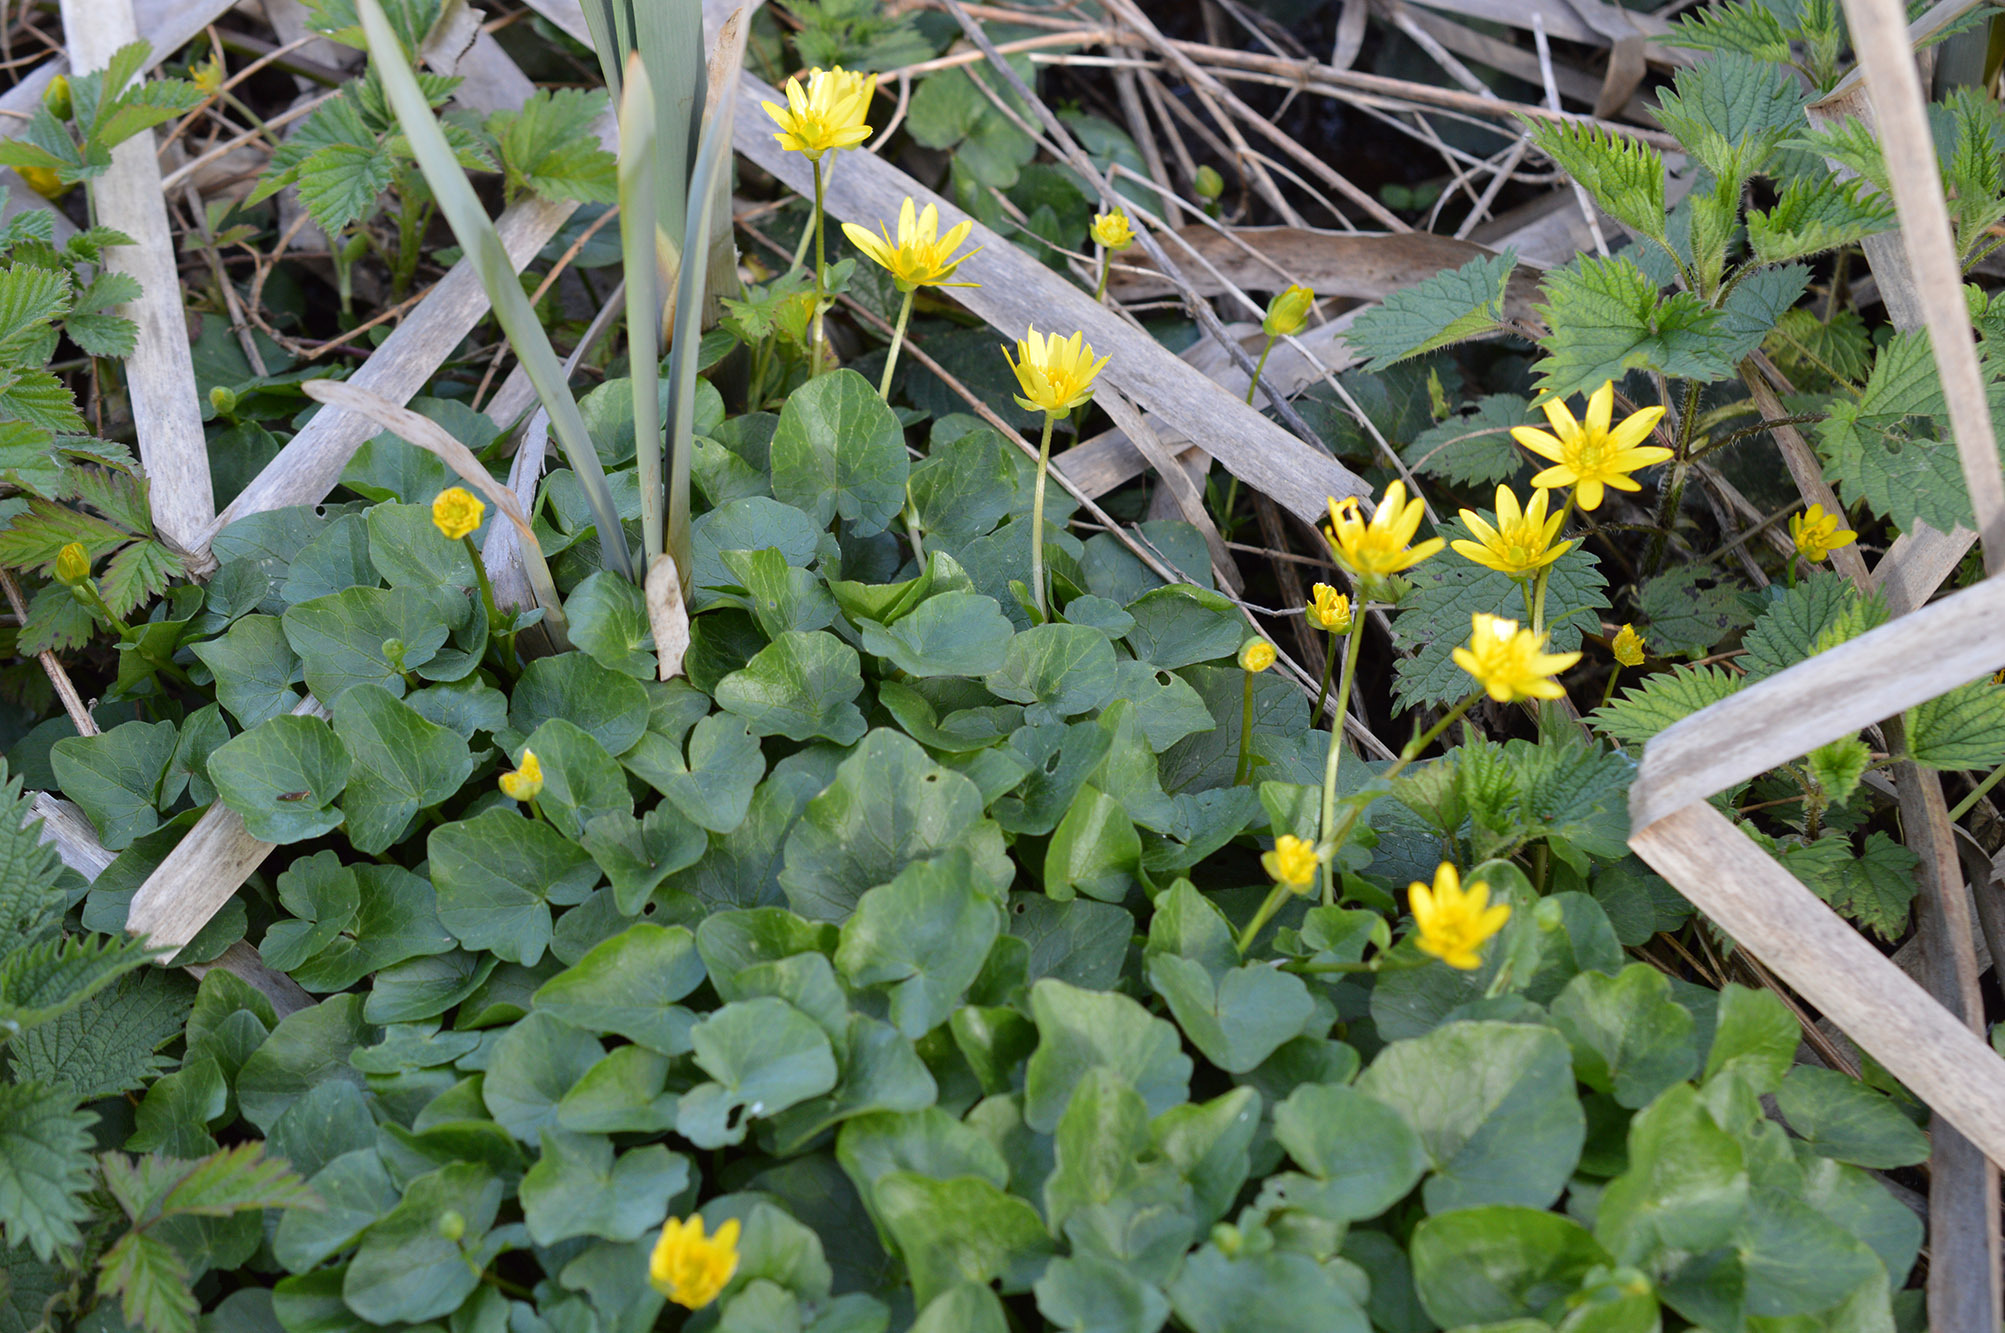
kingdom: Plantae
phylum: Tracheophyta
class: Magnoliopsida
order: Ranunculales
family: Ranunculaceae
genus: Ficaria
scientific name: Ficaria verna
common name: Lesser celandine
